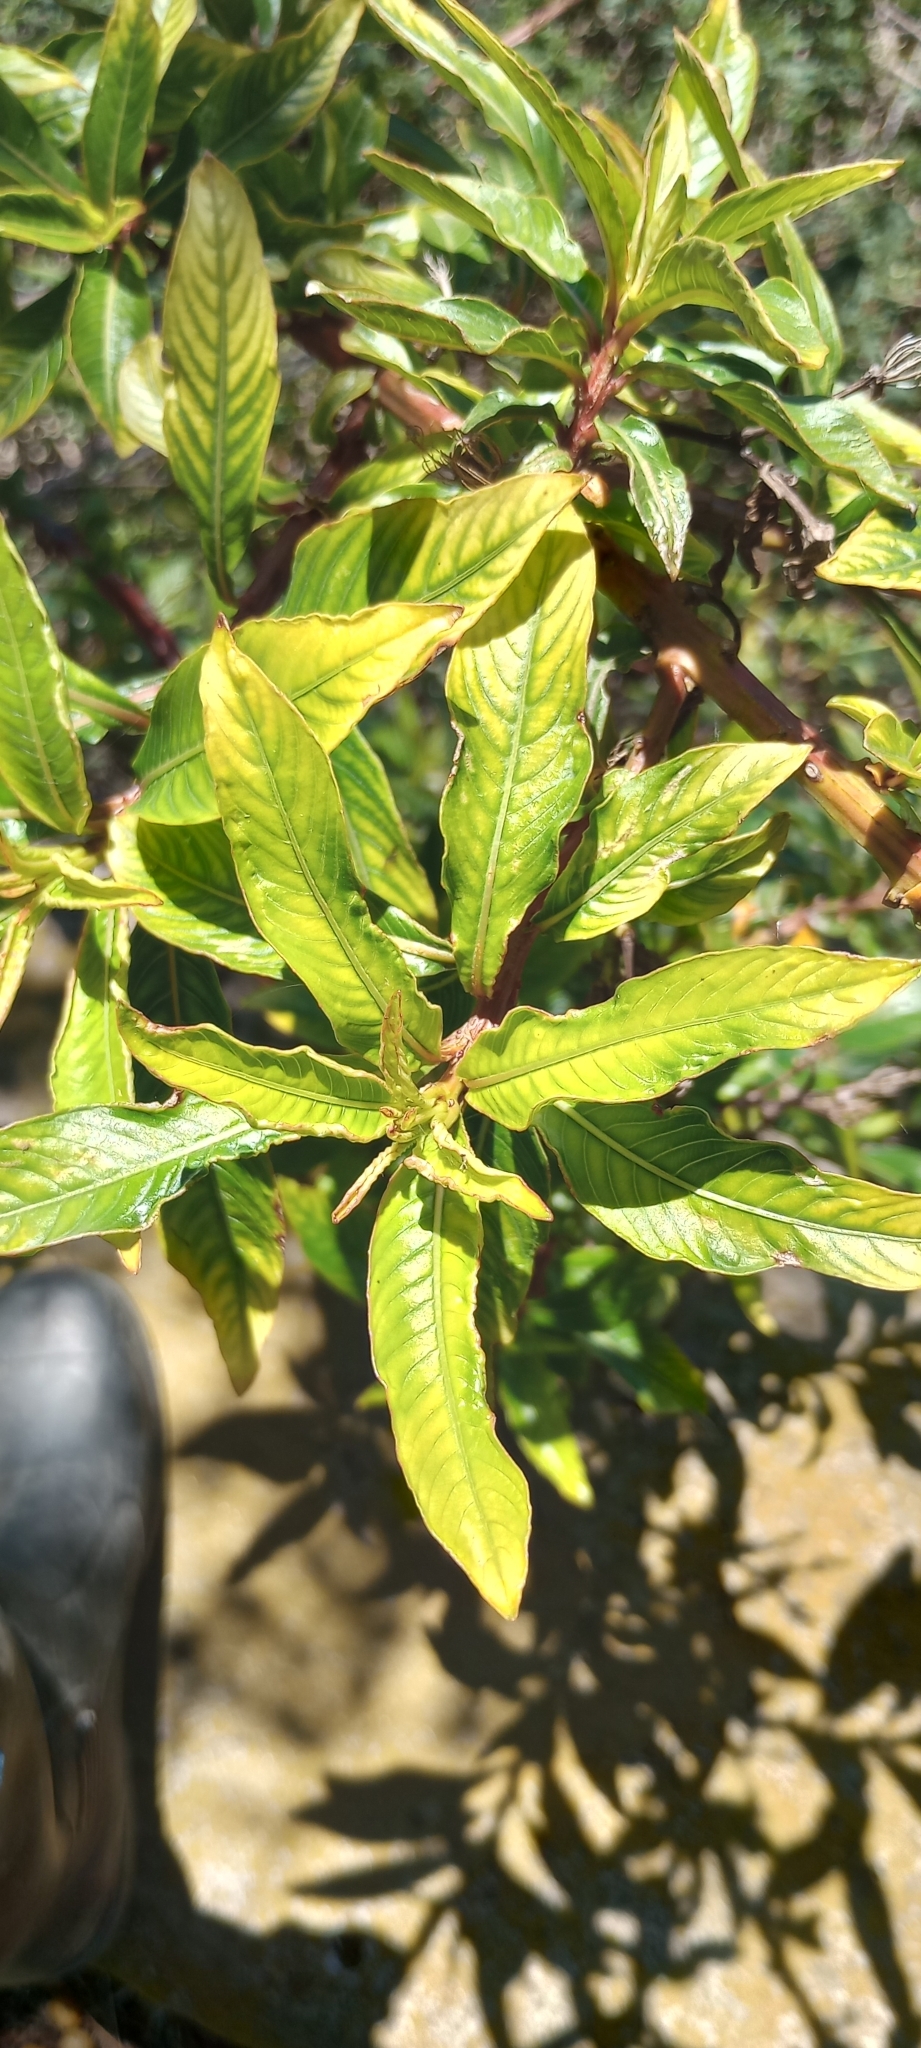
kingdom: Plantae
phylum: Tracheophyta
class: Magnoliopsida
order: Myrtales
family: Onagraceae
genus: Ludwigia
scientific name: Ludwigia elegans
